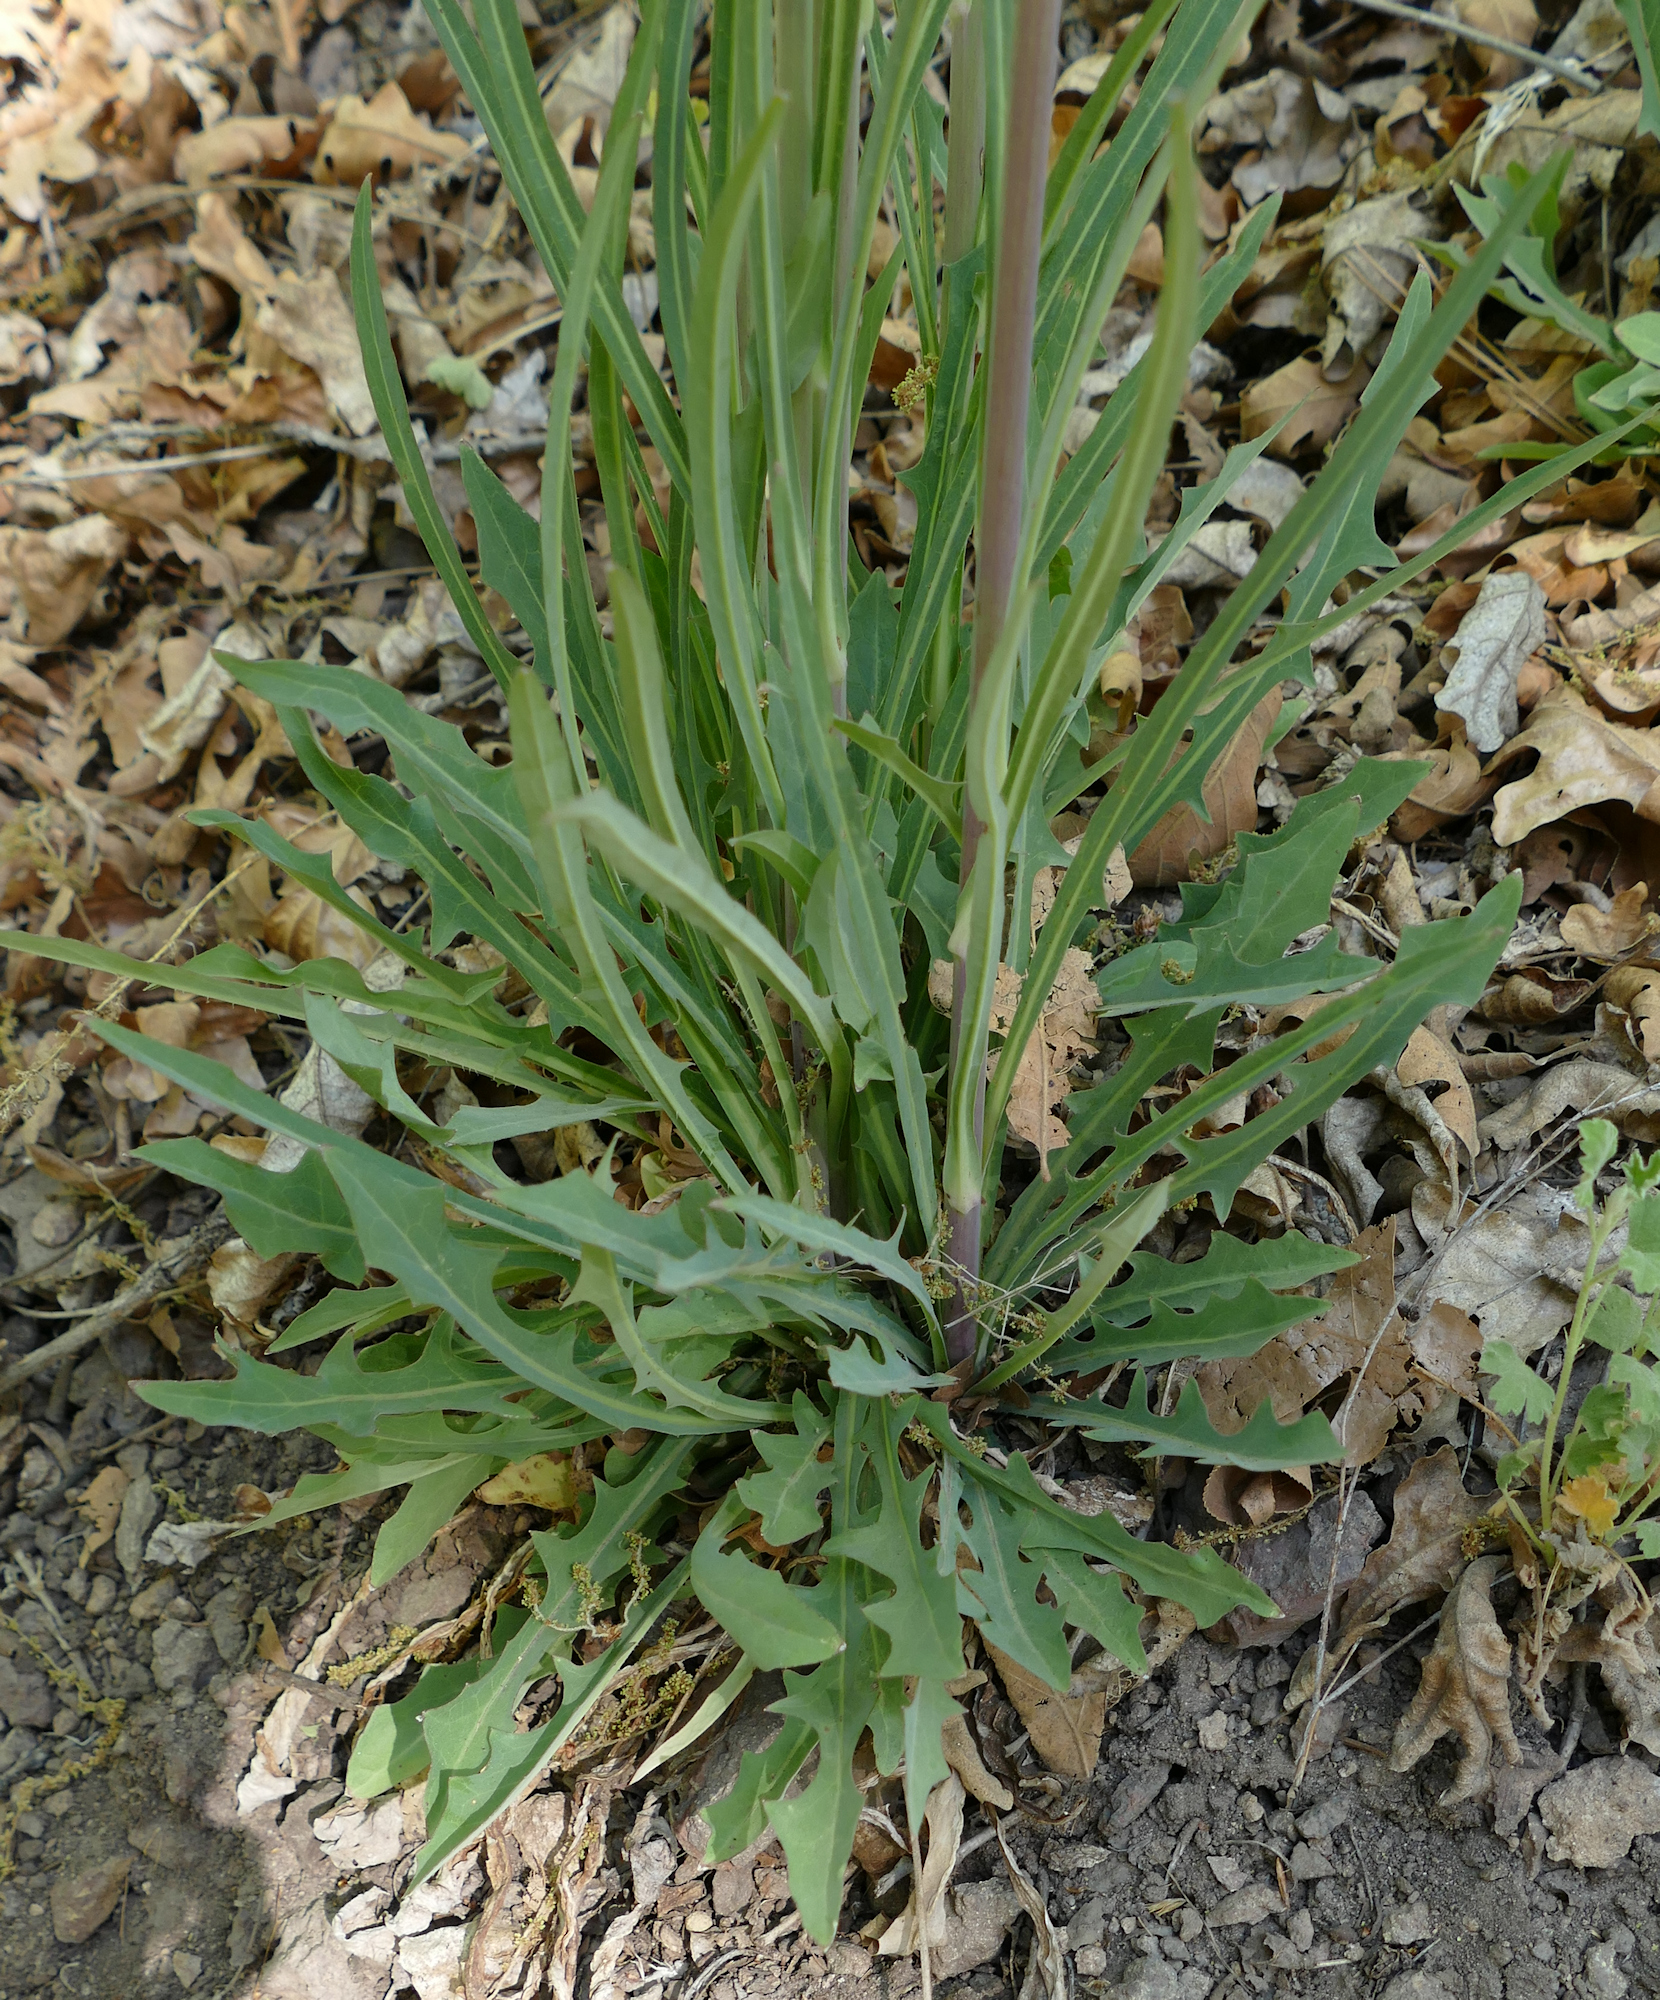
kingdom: Plantae
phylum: Tracheophyta
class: Magnoliopsida
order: Asterales
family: Asteraceae
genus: Lactuca
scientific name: Lactuca graminifolia
